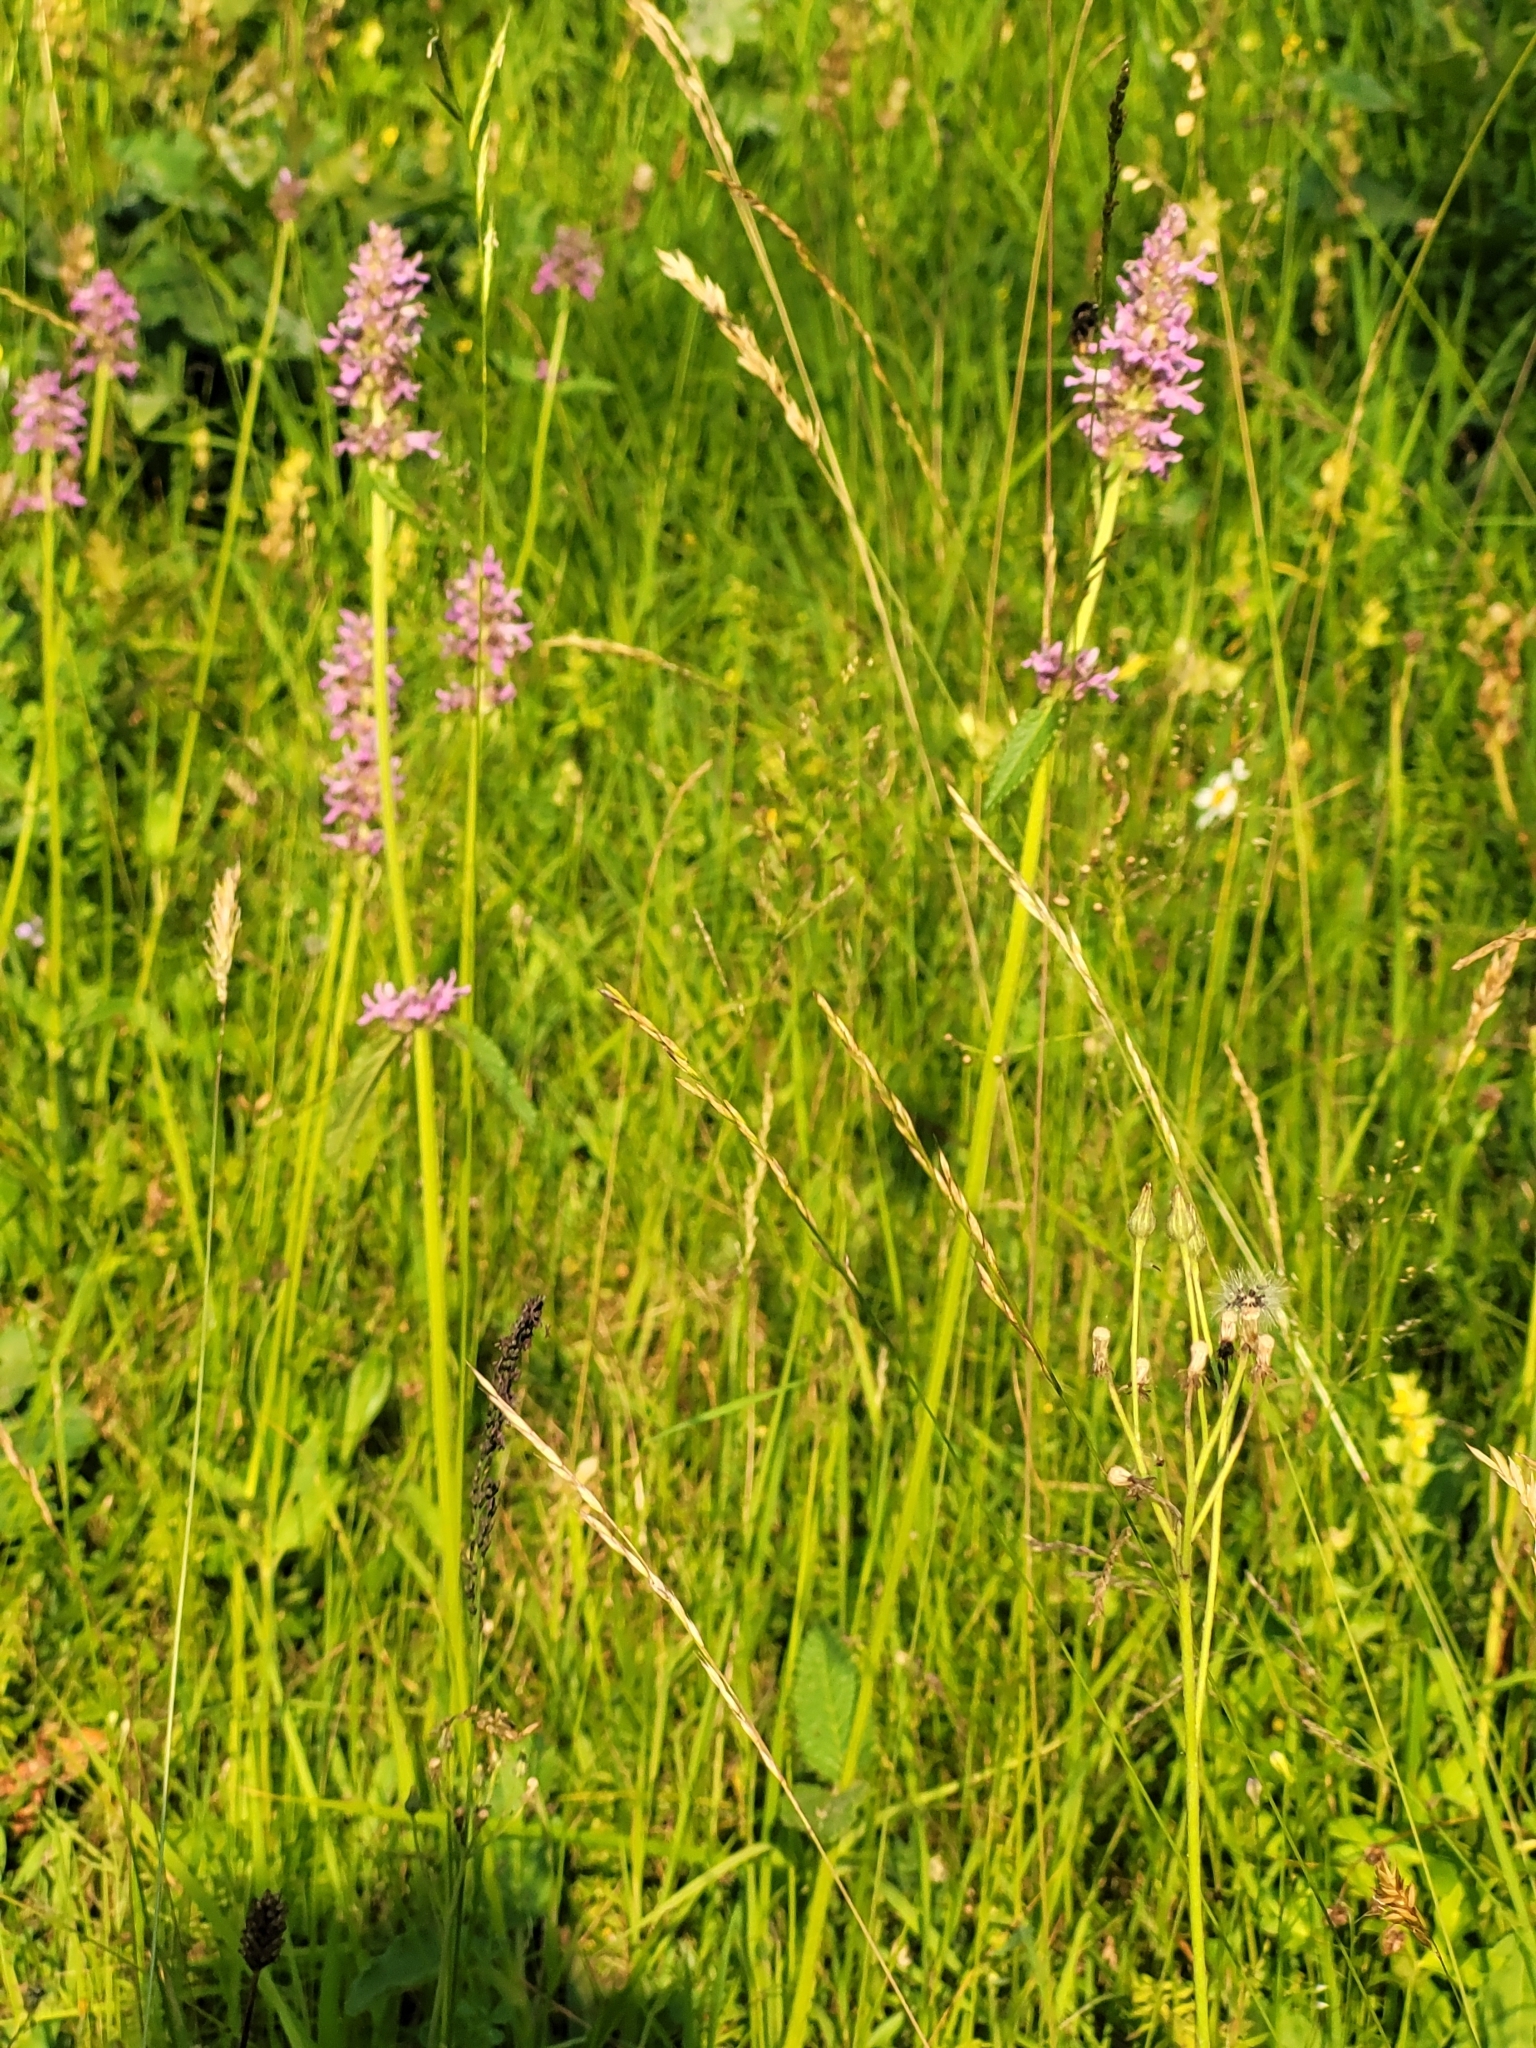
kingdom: Plantae
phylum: Tracheophyta
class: Magnoliopsida
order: Lamiales
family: Lamiaceae
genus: Betonica
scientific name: Betonica officinalis
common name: Bishop's-wort
